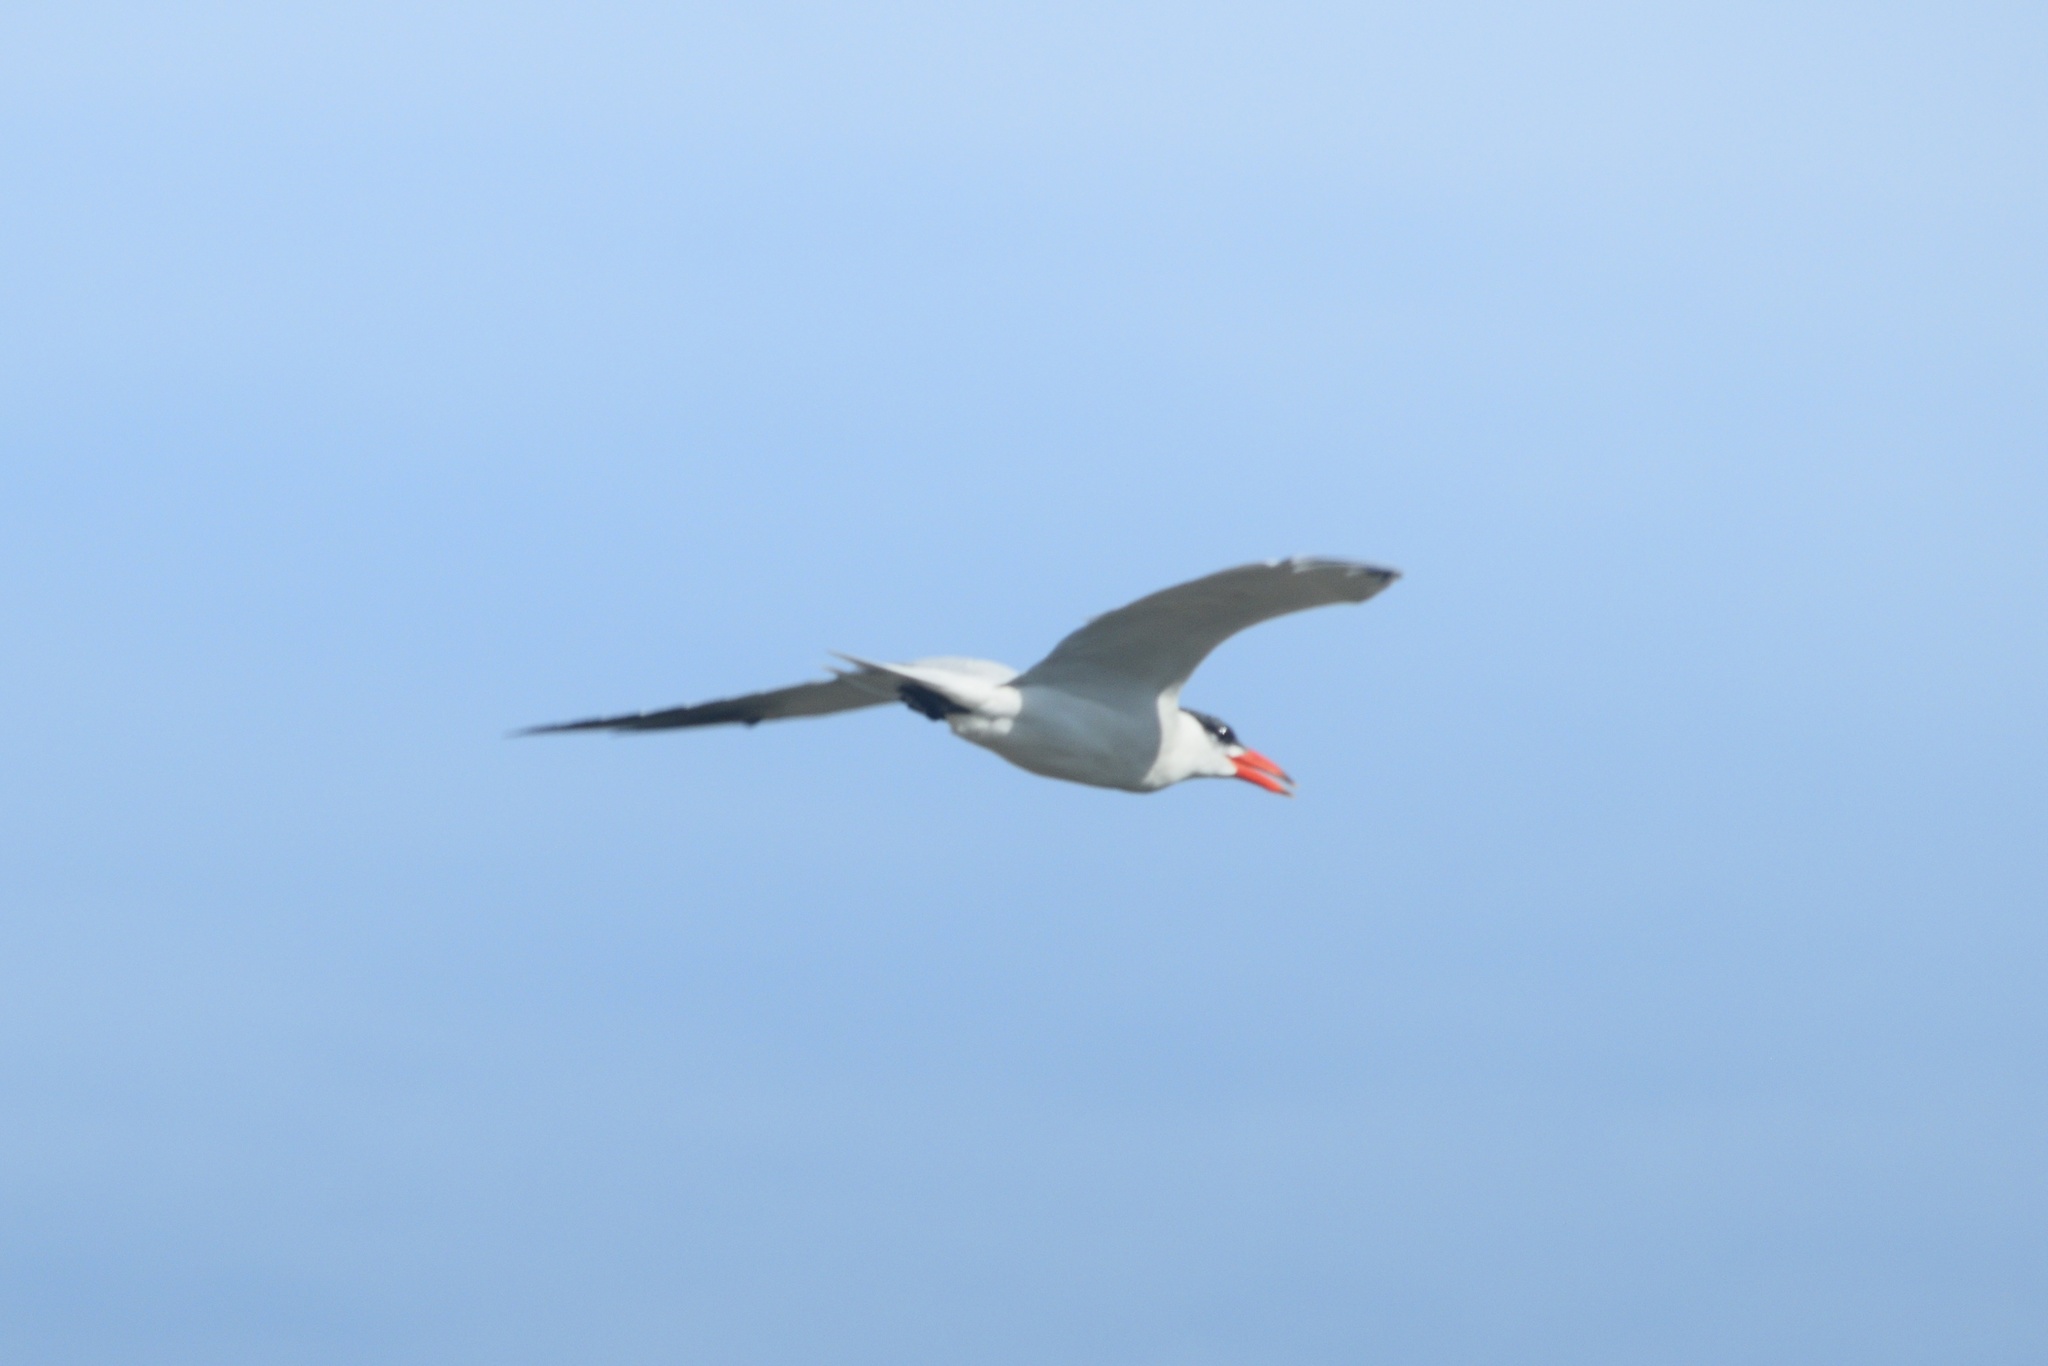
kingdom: Animalia
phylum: Chordata
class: Aves
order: Charadriiformes
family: Laridae
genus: Hydroprogne
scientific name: Hydroprogne caspia
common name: Caspian tern
